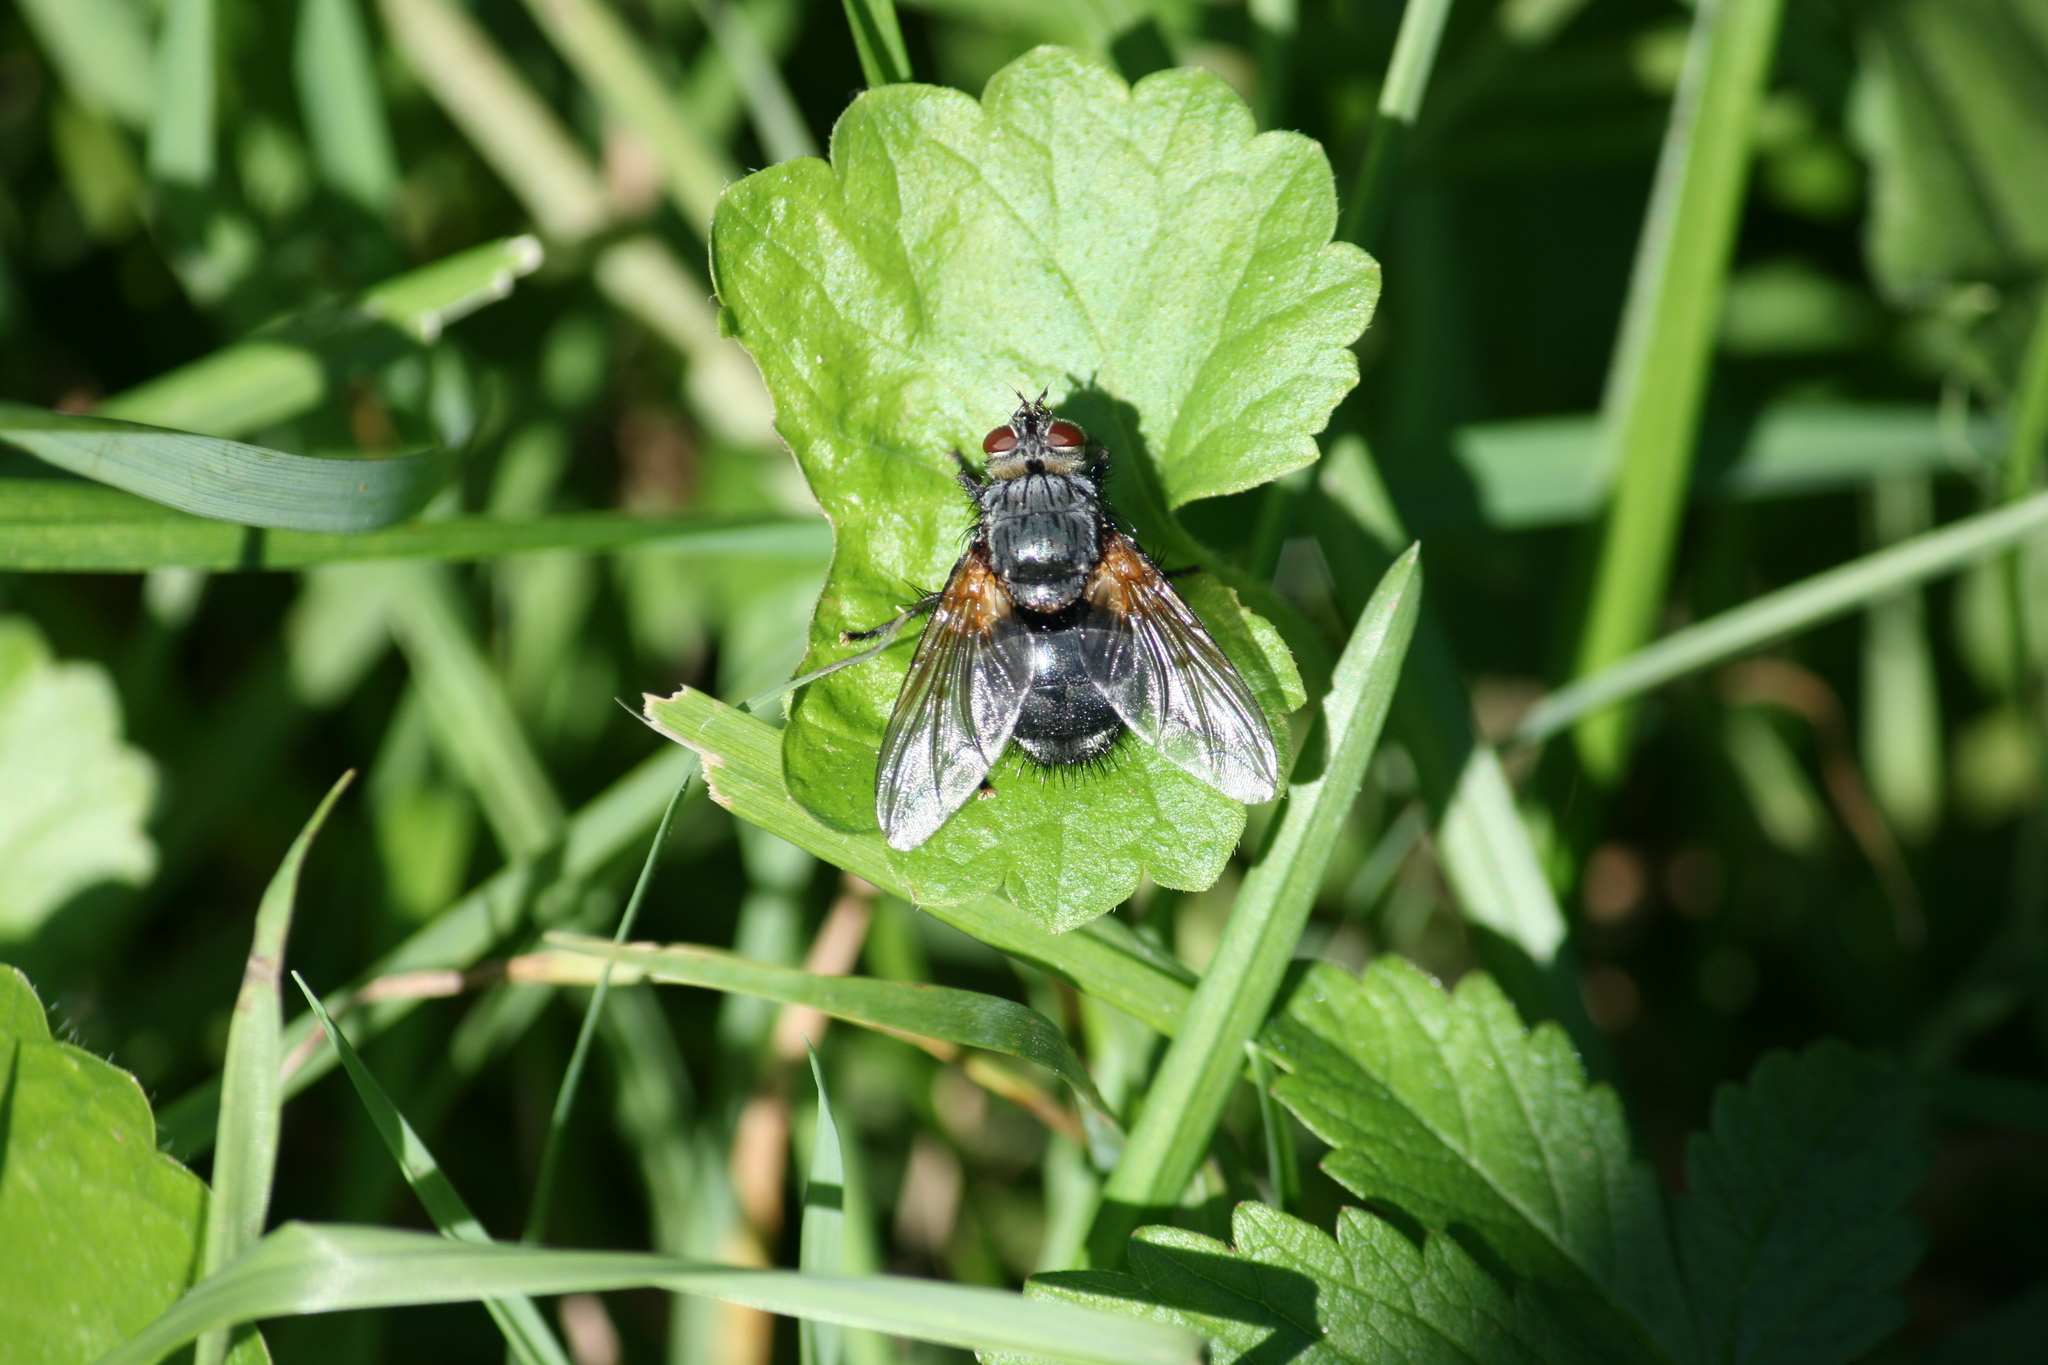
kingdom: Animalia
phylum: Arthropoda
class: Insecta
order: Diptera
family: Tachinidae
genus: Nemoraea
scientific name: Nemoraea pellucida
